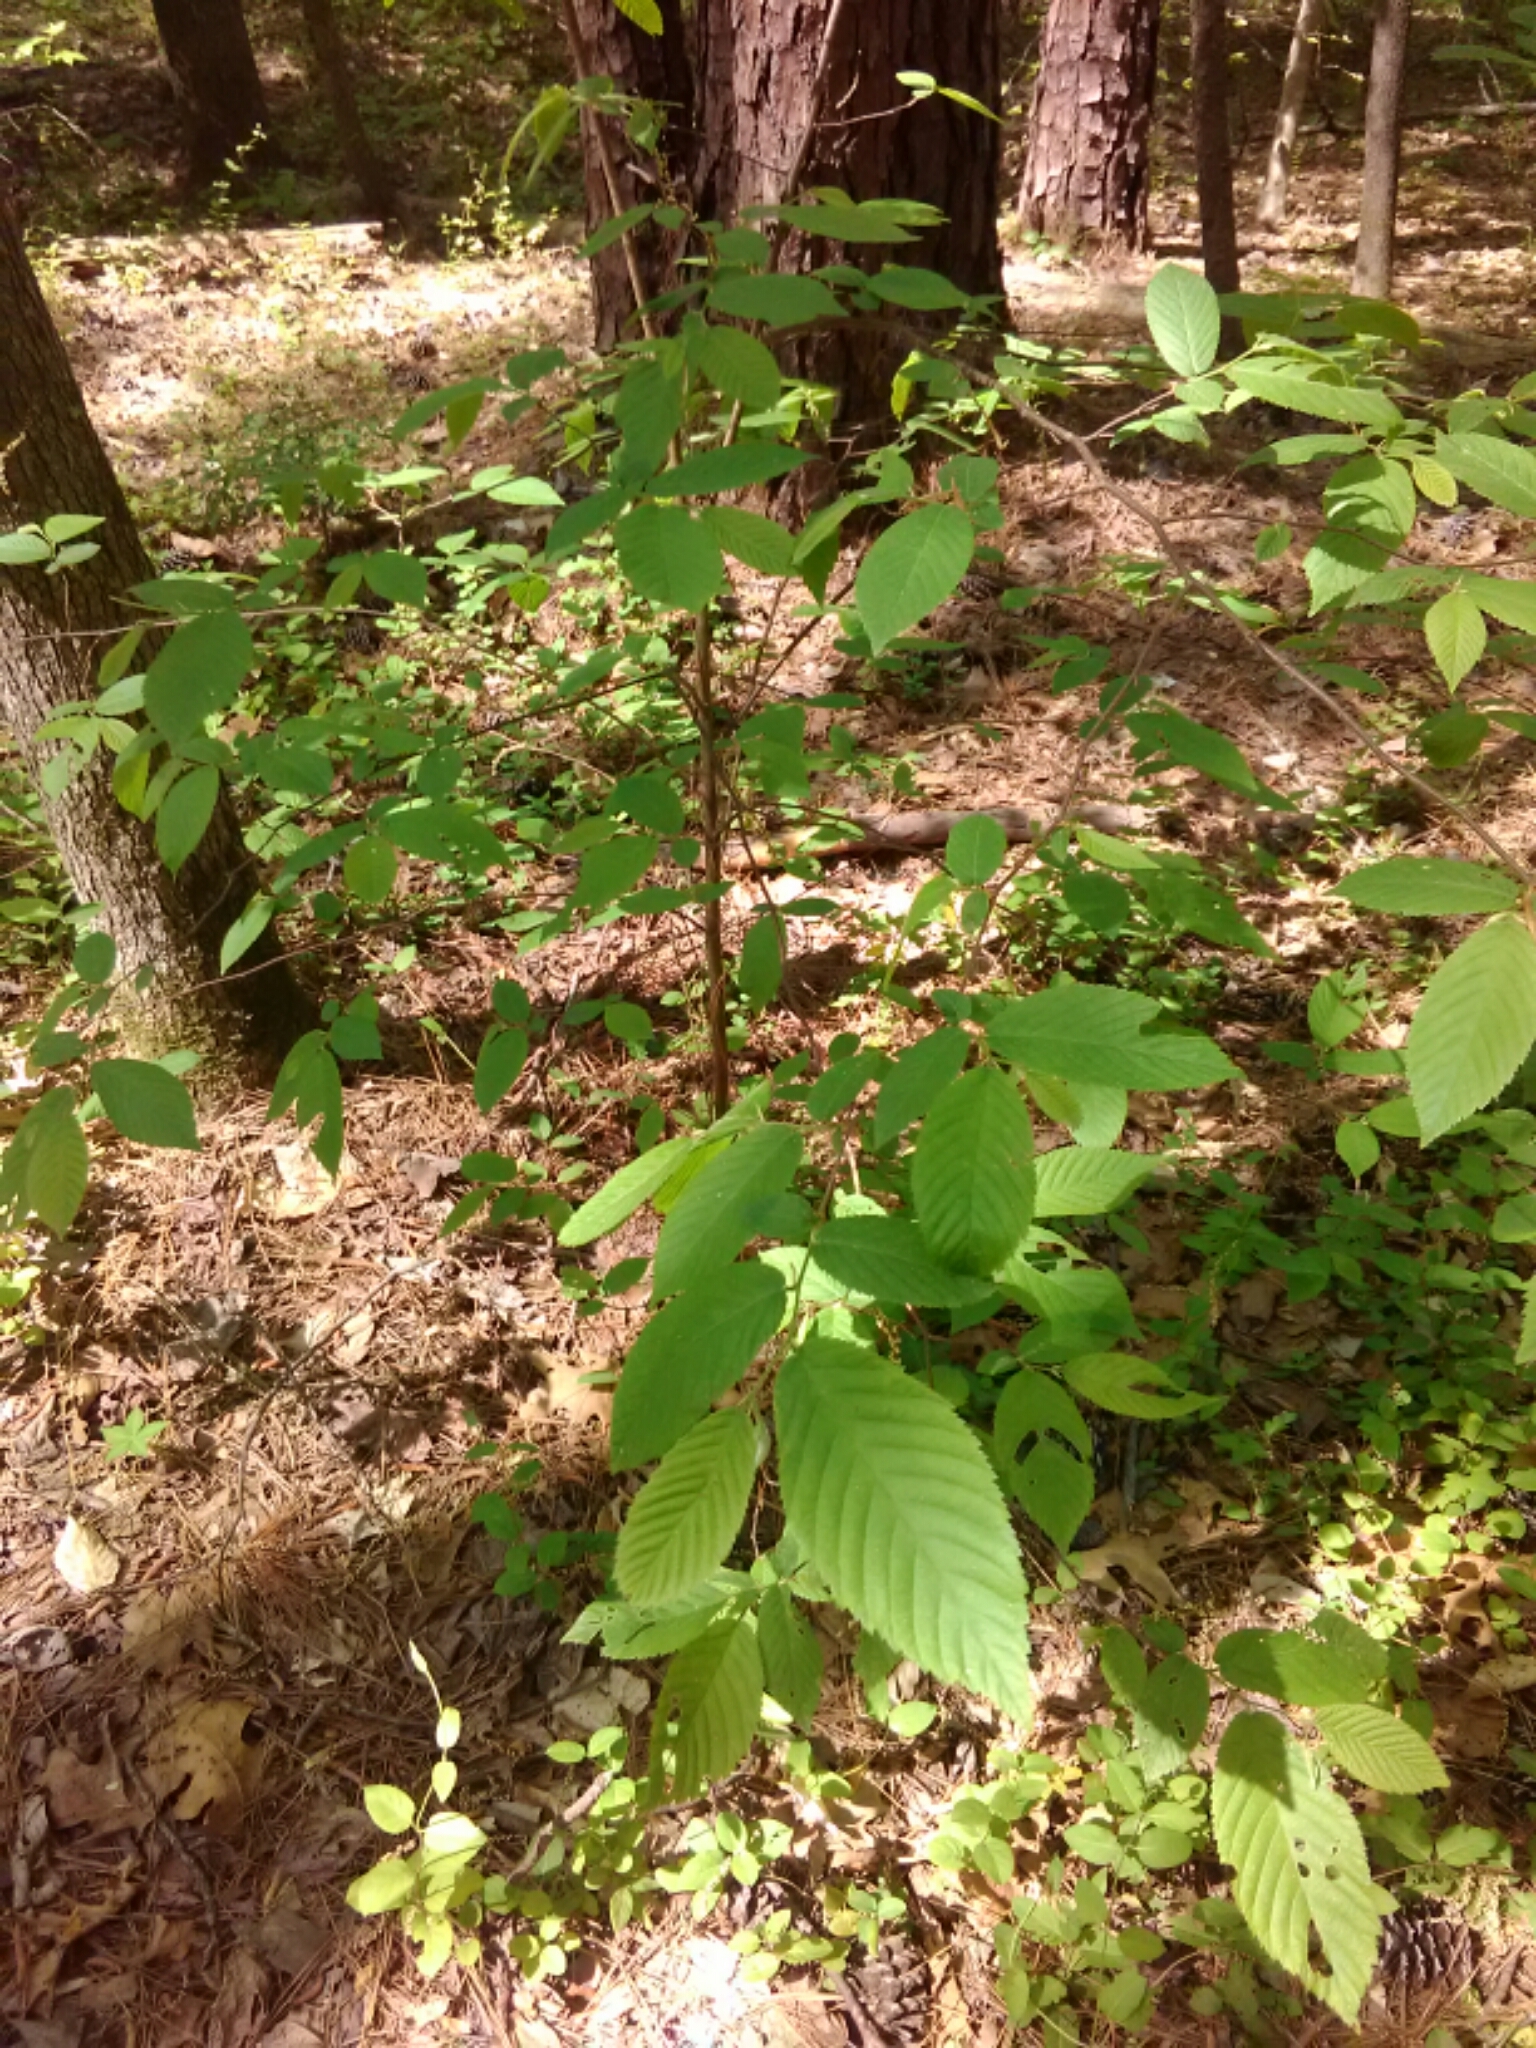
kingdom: Plantae
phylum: Tracheophyta
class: Magnoliopsida
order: Fagales
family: Fagaceae
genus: Fagus
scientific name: Fagus grandifolia
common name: American beech
